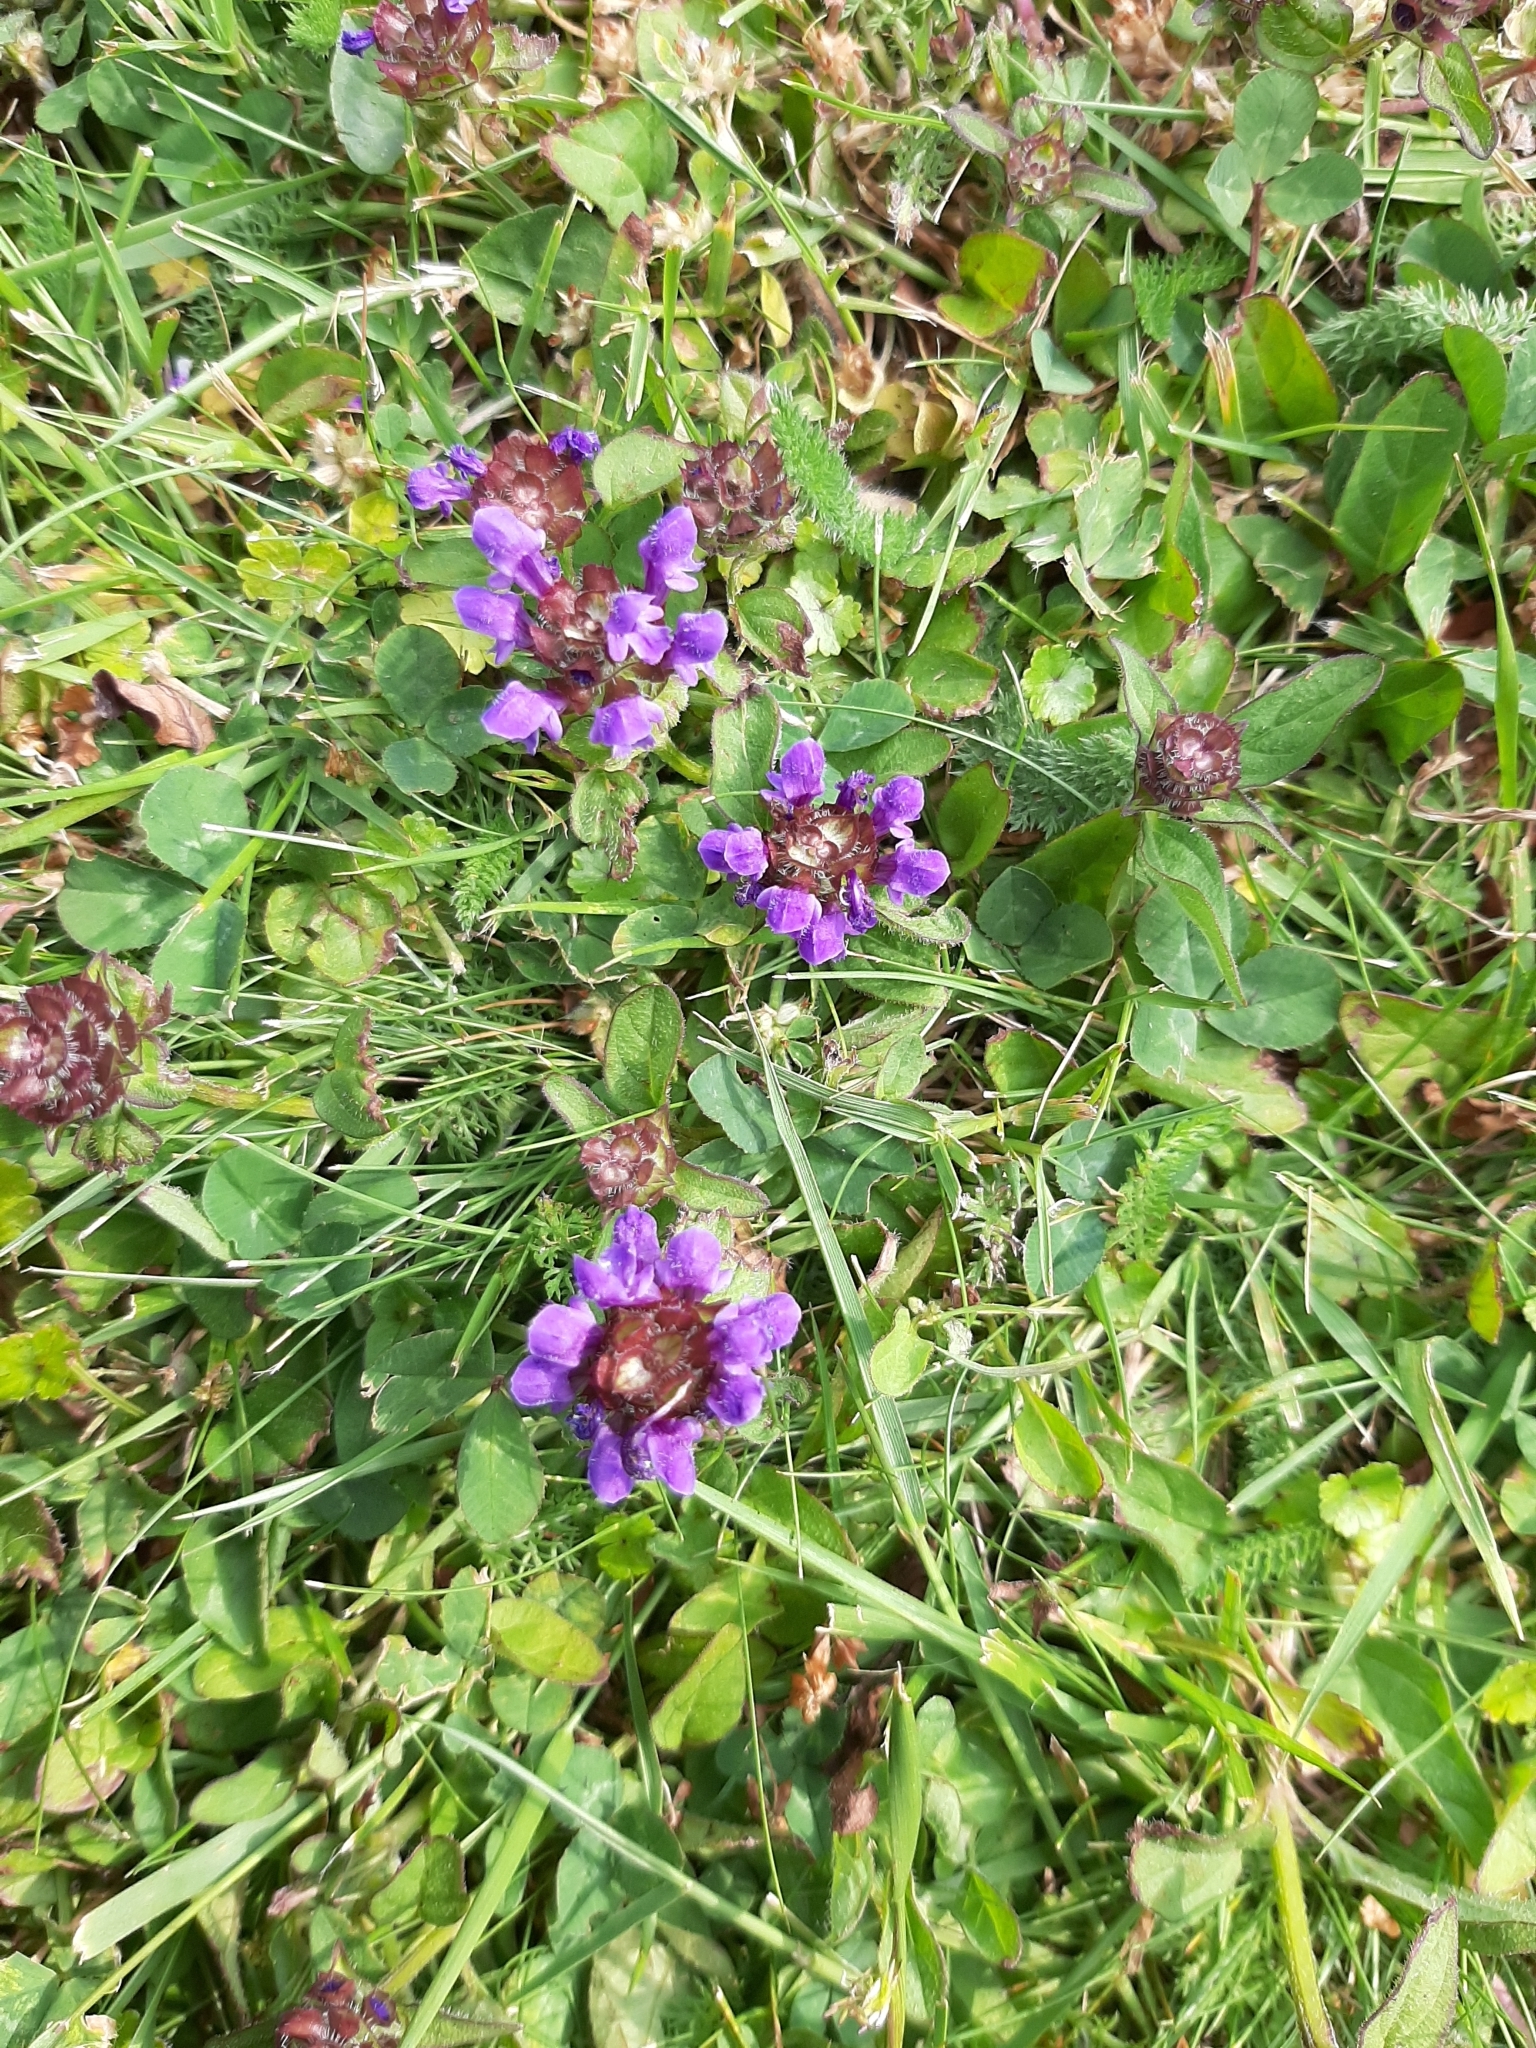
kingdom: Plantae
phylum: Tracheophyta
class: Magnoliopsida
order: Lamiales
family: Lamiaceae
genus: Prunella
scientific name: Prunella vulgaris
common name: Heal-all
